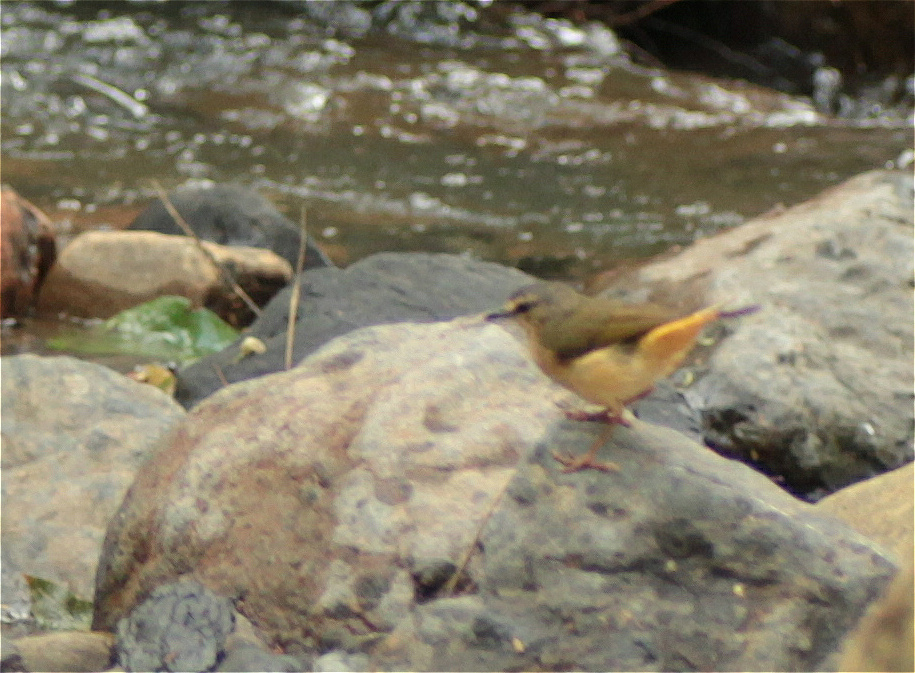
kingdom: Animalia
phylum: Chordata
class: Aves
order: Passeriformes
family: Parulidae
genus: Myiothlypis
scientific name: Myiothlypis fulvicauda
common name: Buff-rumped warbler
